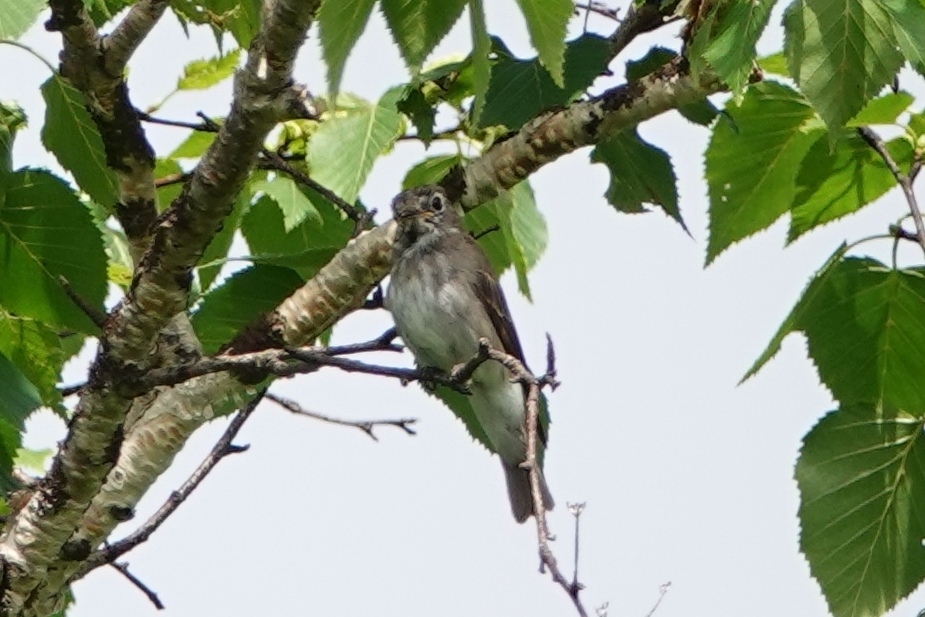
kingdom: Animalia
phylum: Chordata
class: Aves
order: Passeriformes
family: Muscicapidae
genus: Muscicapa
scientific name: Muscicapa sibirica
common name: Dark-sided flycatcher
